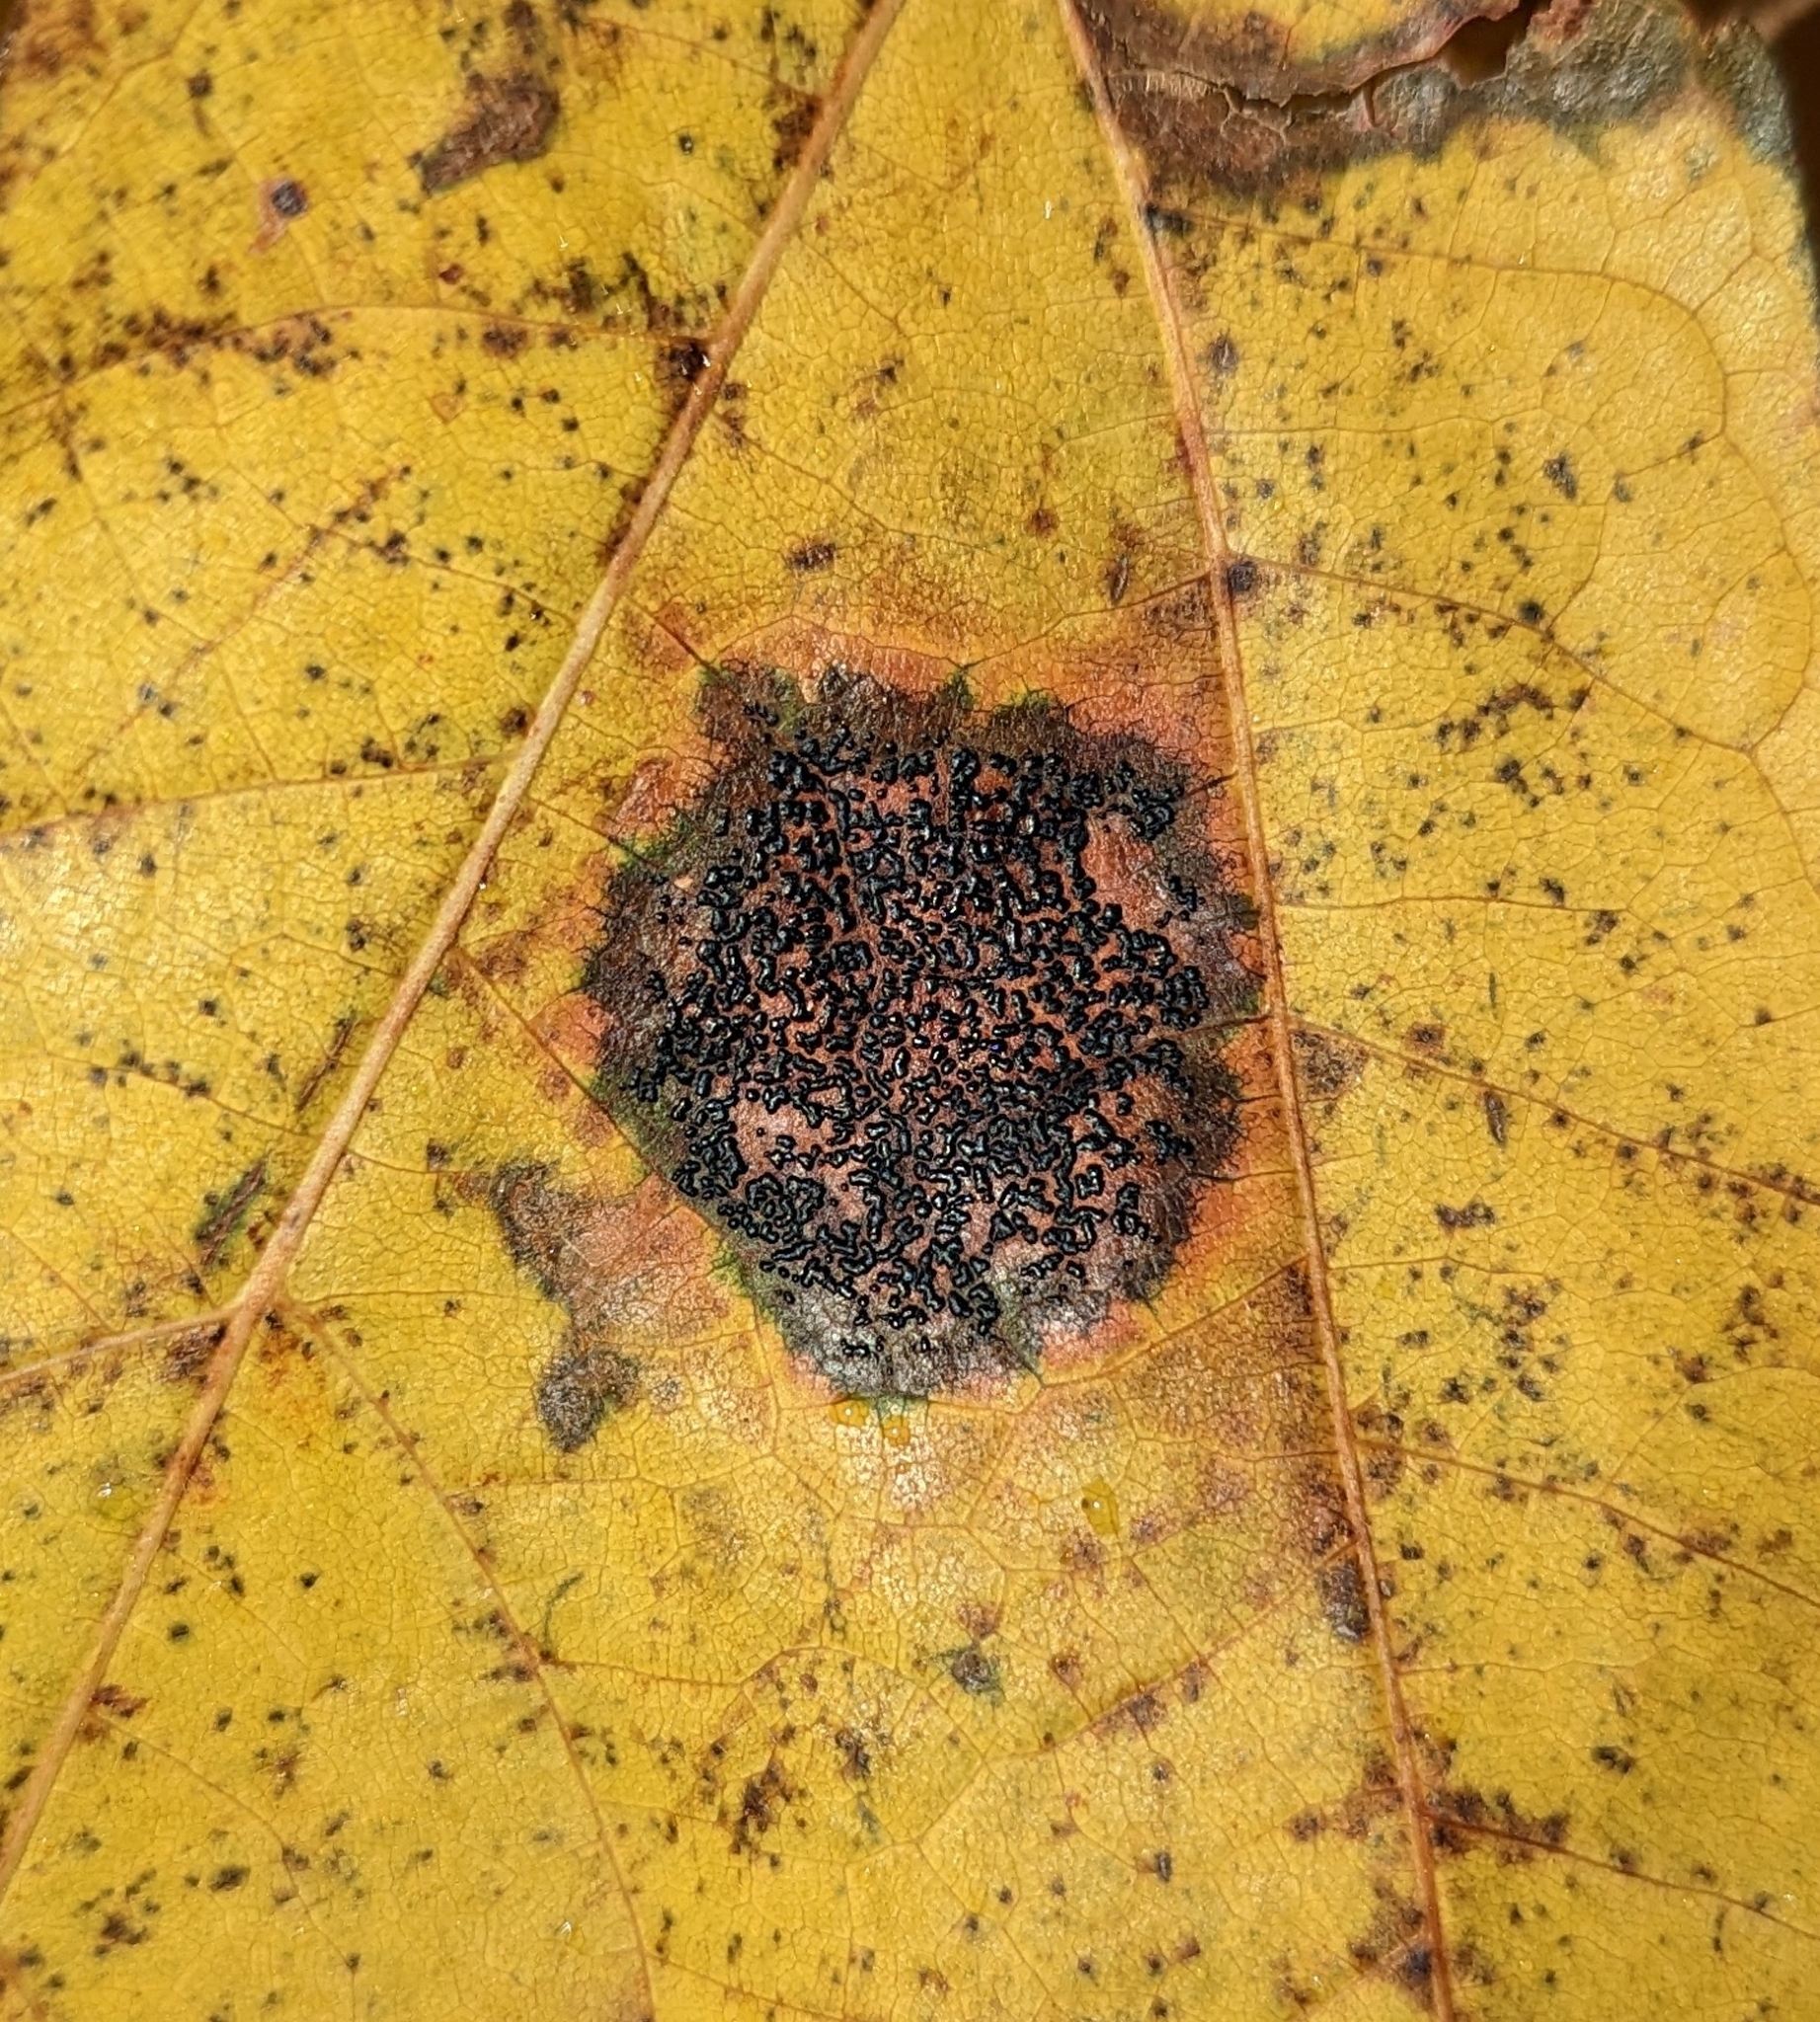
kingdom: Fungi
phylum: Ascomycota
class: Leotiomycetes
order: Rhytismatales
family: Rhytismataceae
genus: Rhytisma
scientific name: Rhytisma punctatum
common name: Speckled tar spot
